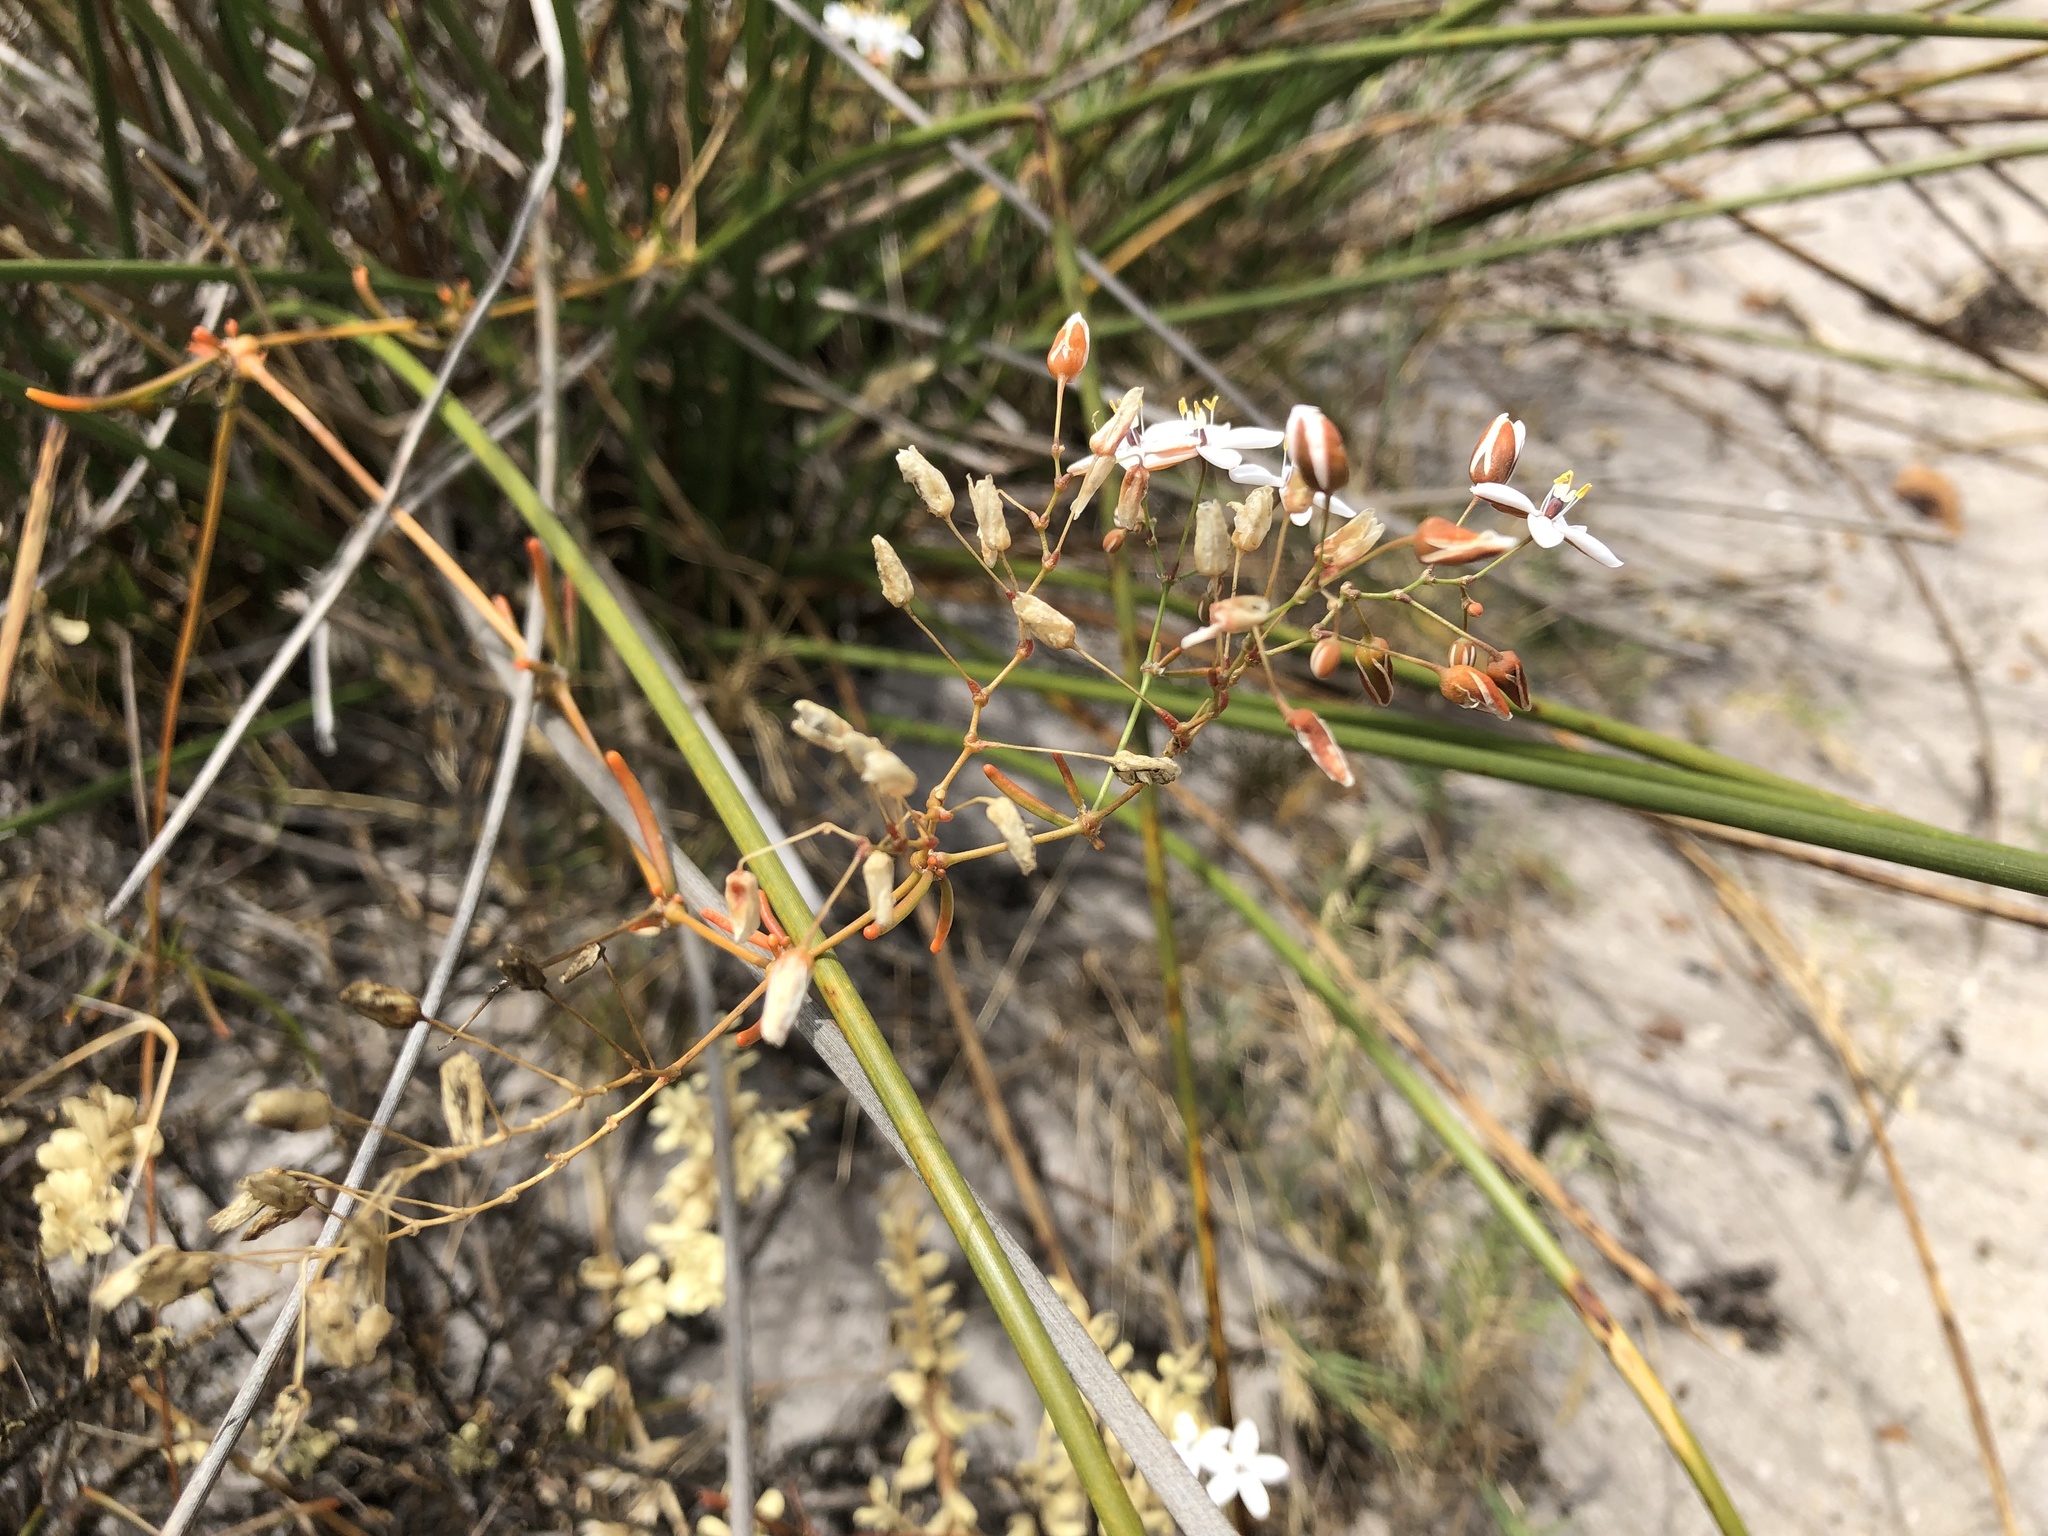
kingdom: Plantae
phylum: Tracheophyta
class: Magnoliopsida
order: Caryophyllales
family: Molluginaceae
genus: Pharnaceum
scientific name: Pharnaceum lineare
